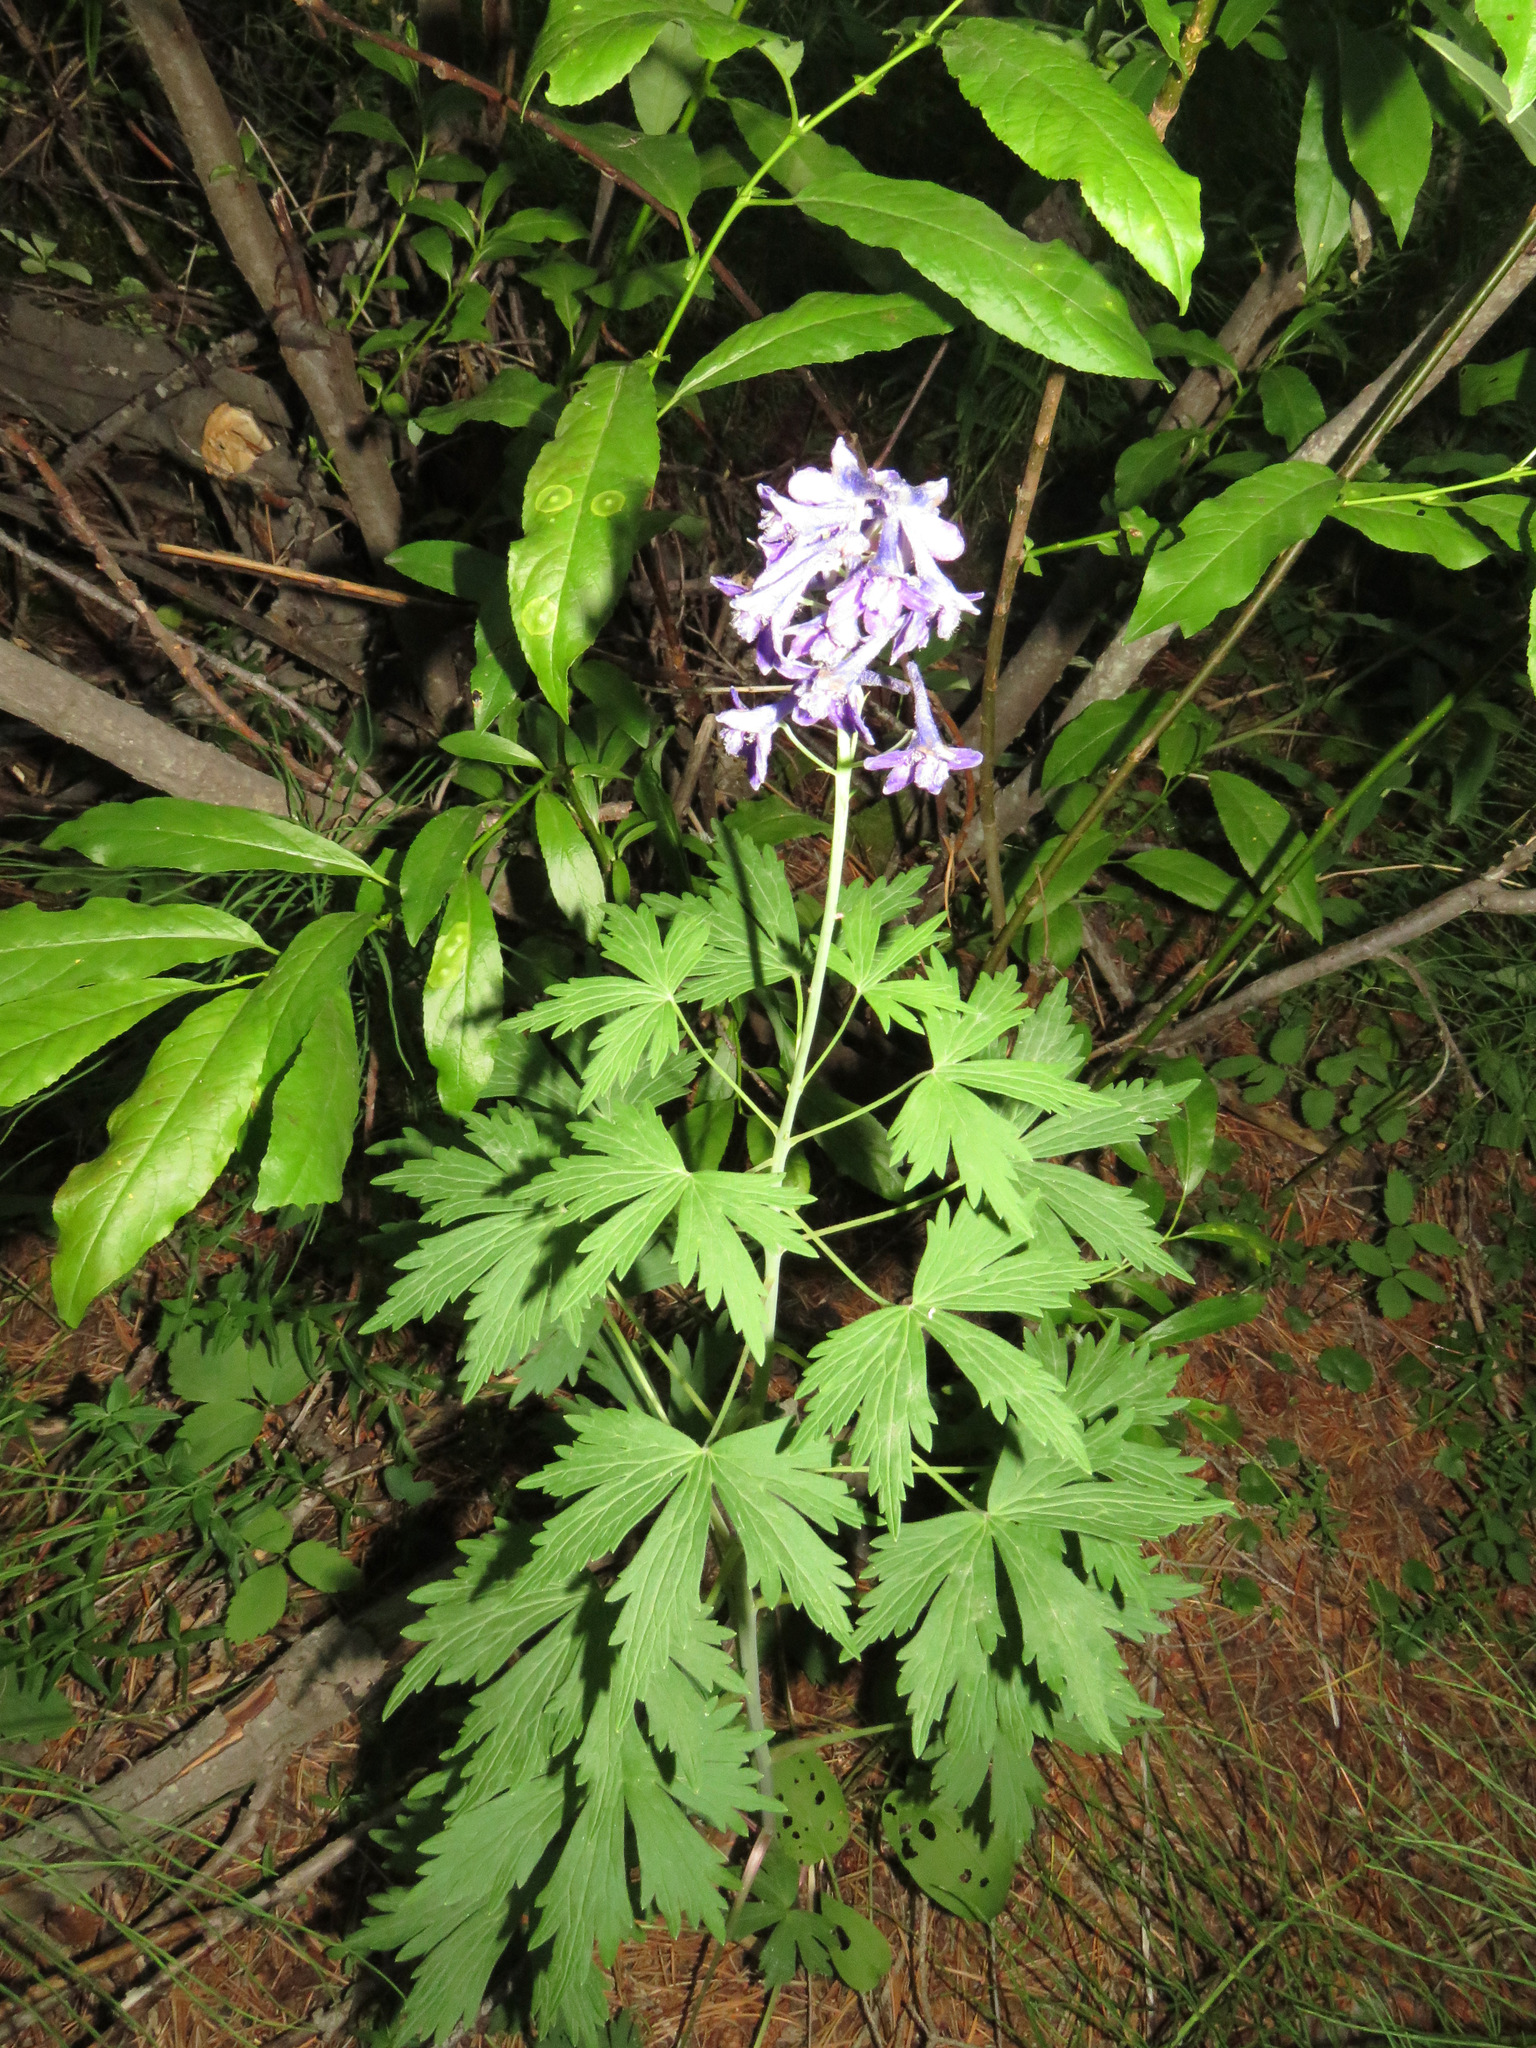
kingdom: Plantae
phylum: Tracheophyta
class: Magnoliopsida
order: Ranunculales
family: Ranunculaceae
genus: Delphinium
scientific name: Delphinium glaucum
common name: Brown's larkspur
